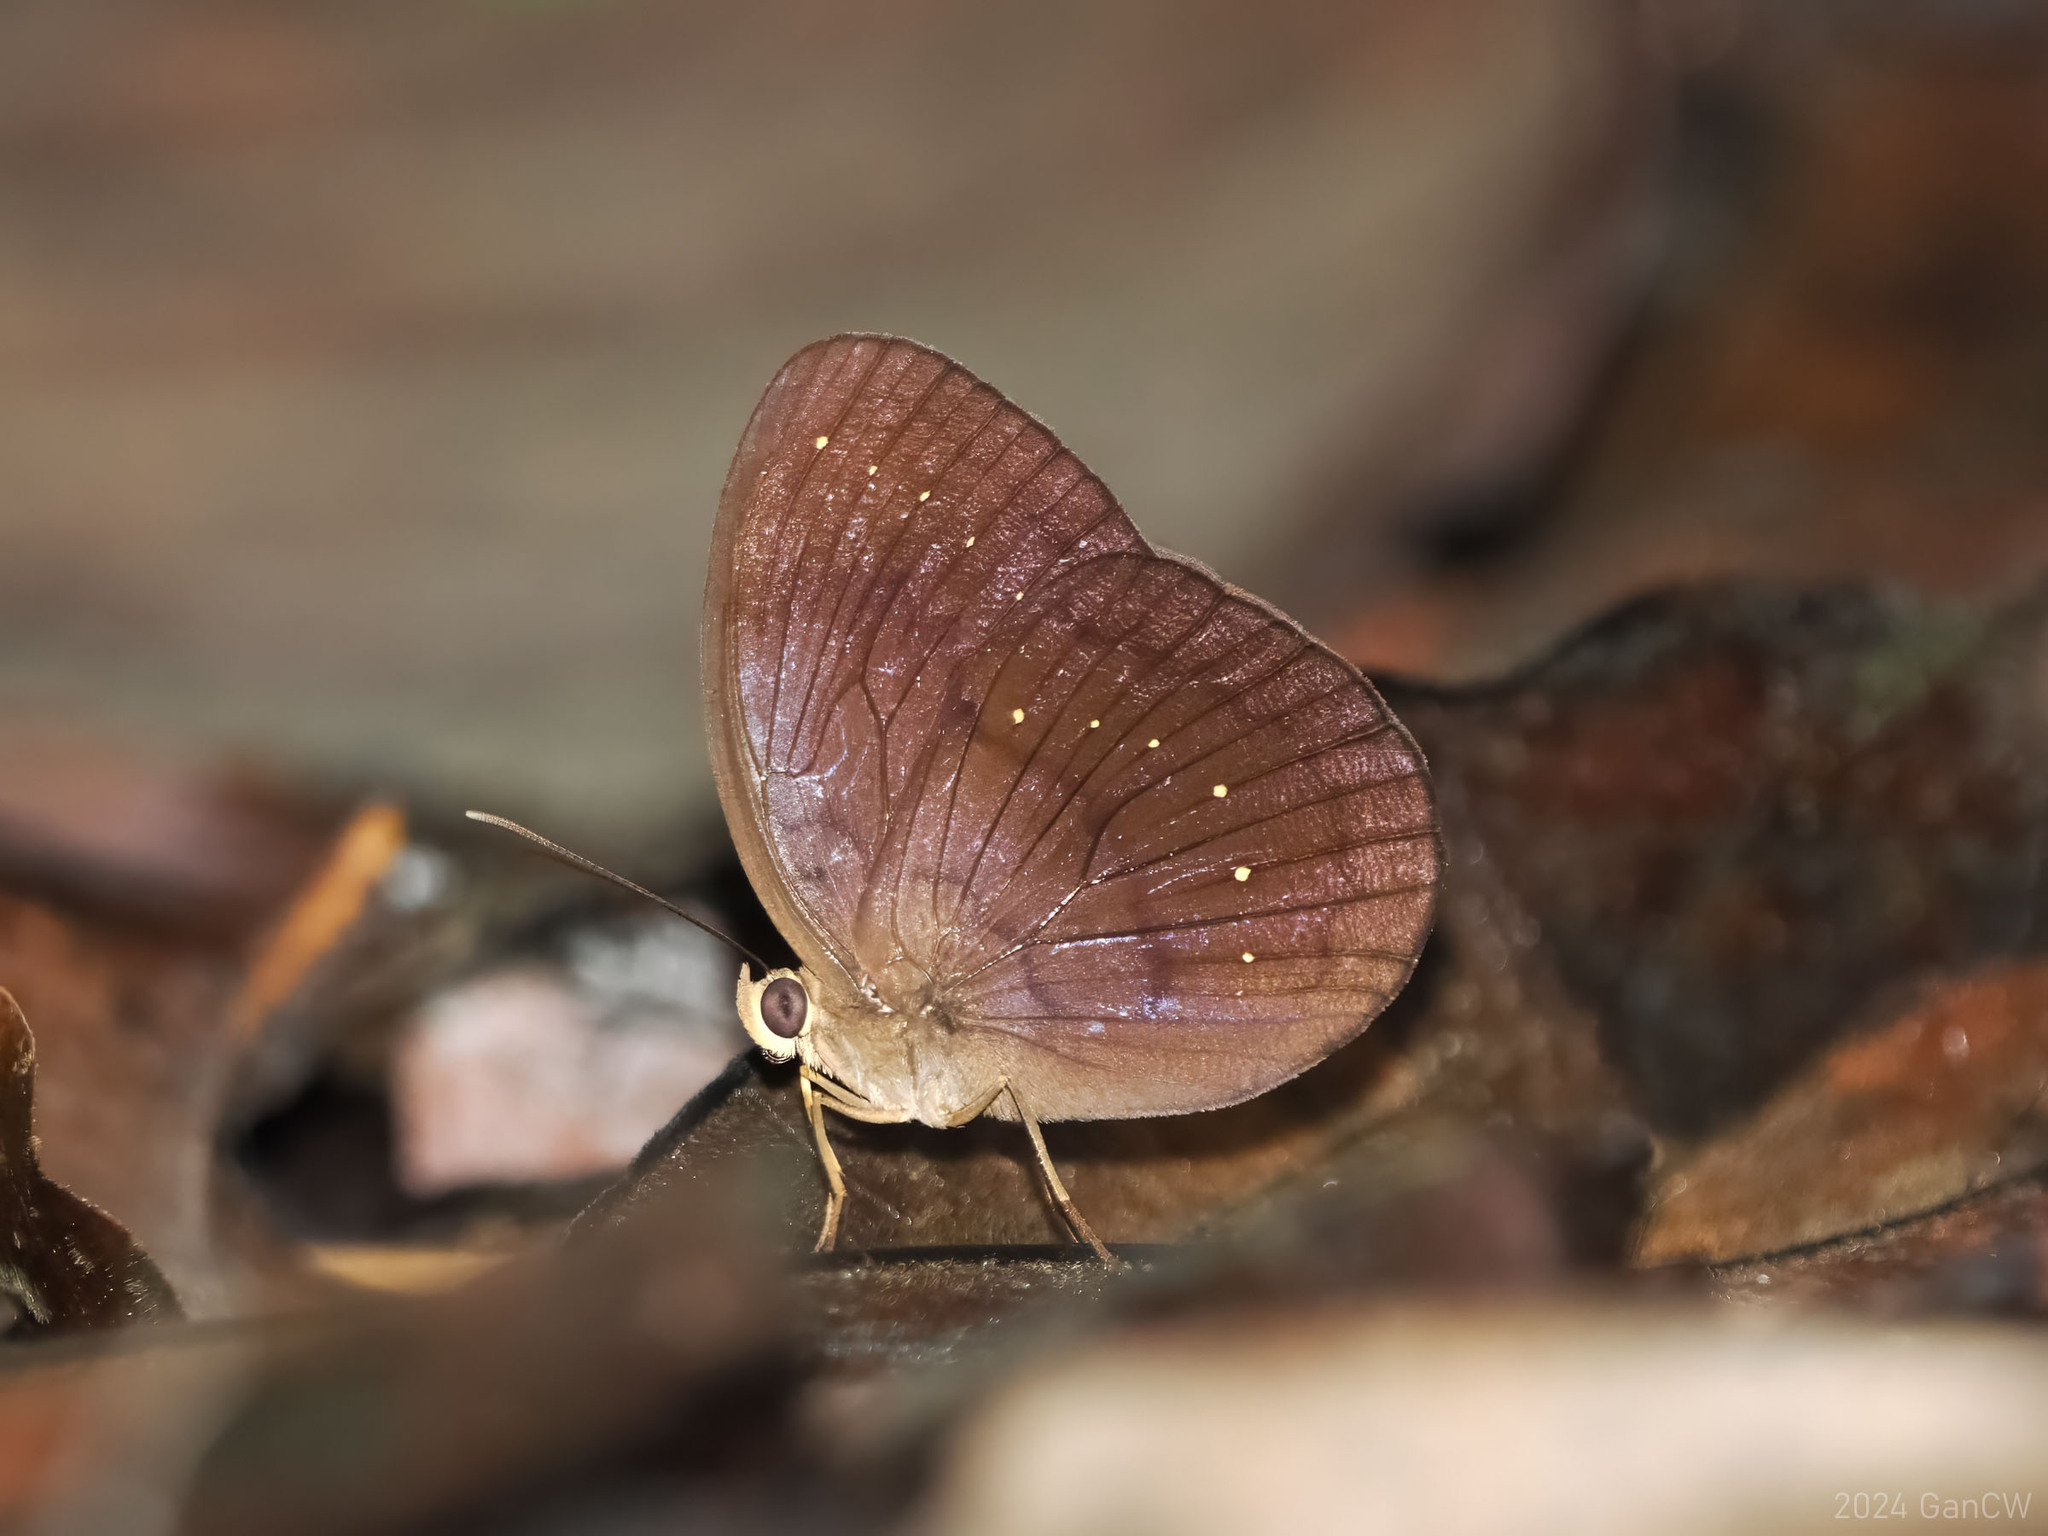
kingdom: Animalia
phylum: Arthropoda
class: Insecta
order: Lepidoptera
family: Nymphalidae
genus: Faunis
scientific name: Faunis canens
